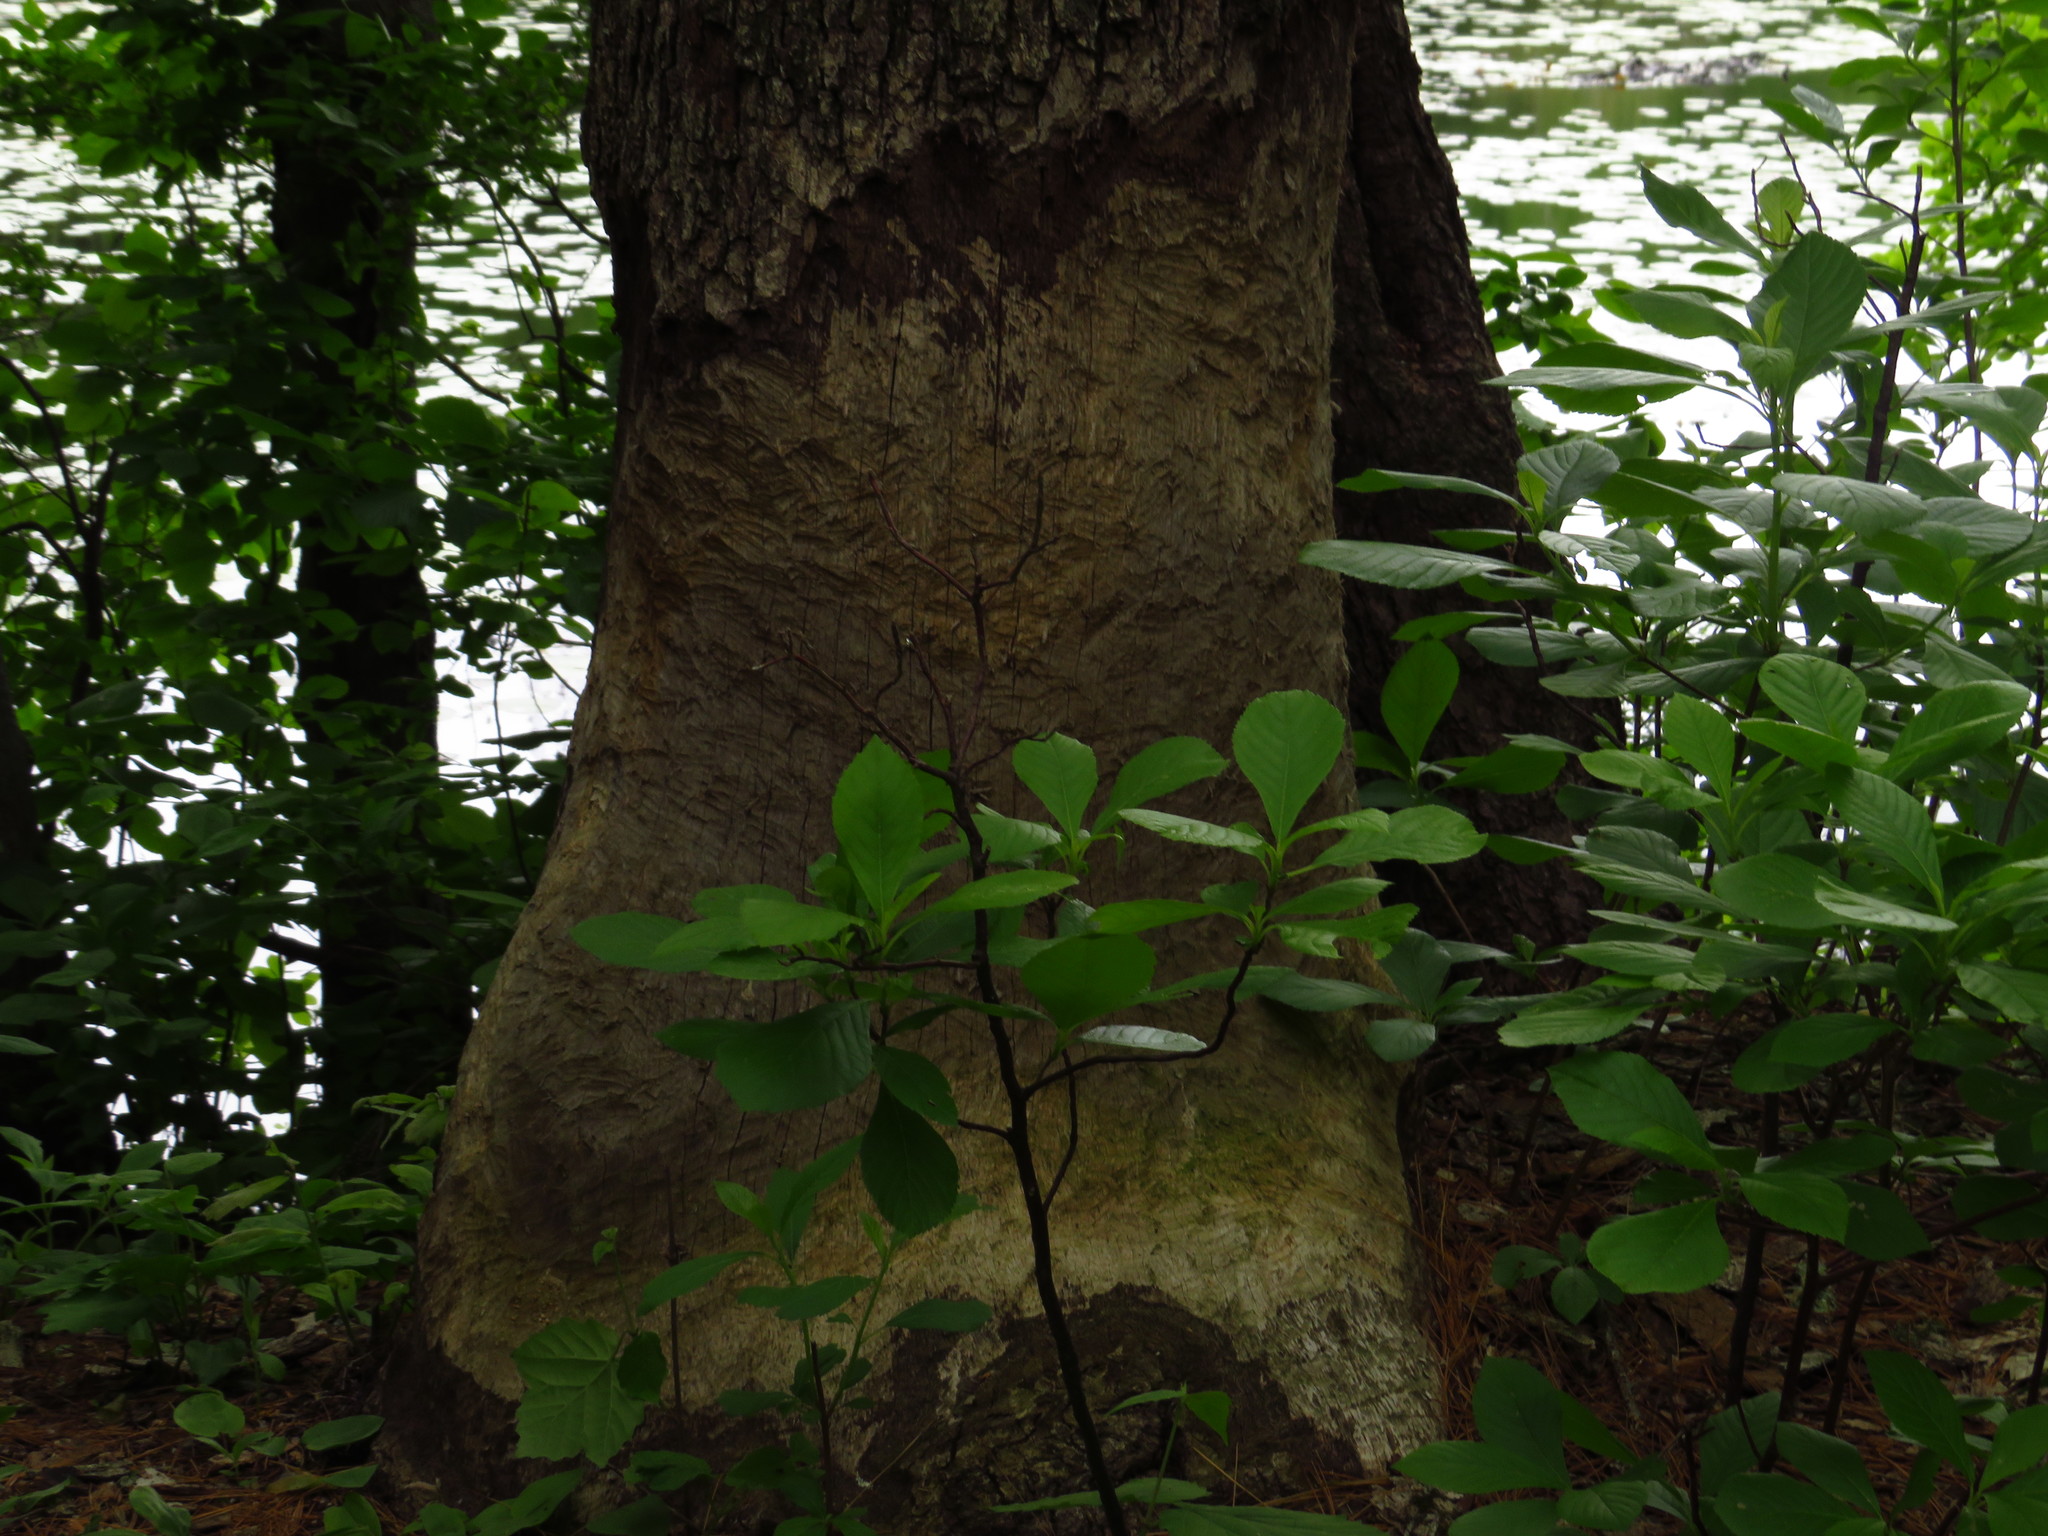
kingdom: Animalia
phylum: Chordata
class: Mammalia
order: Rodentia
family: Castoridae
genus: Castor
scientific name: Castor canadensis
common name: American beaver
